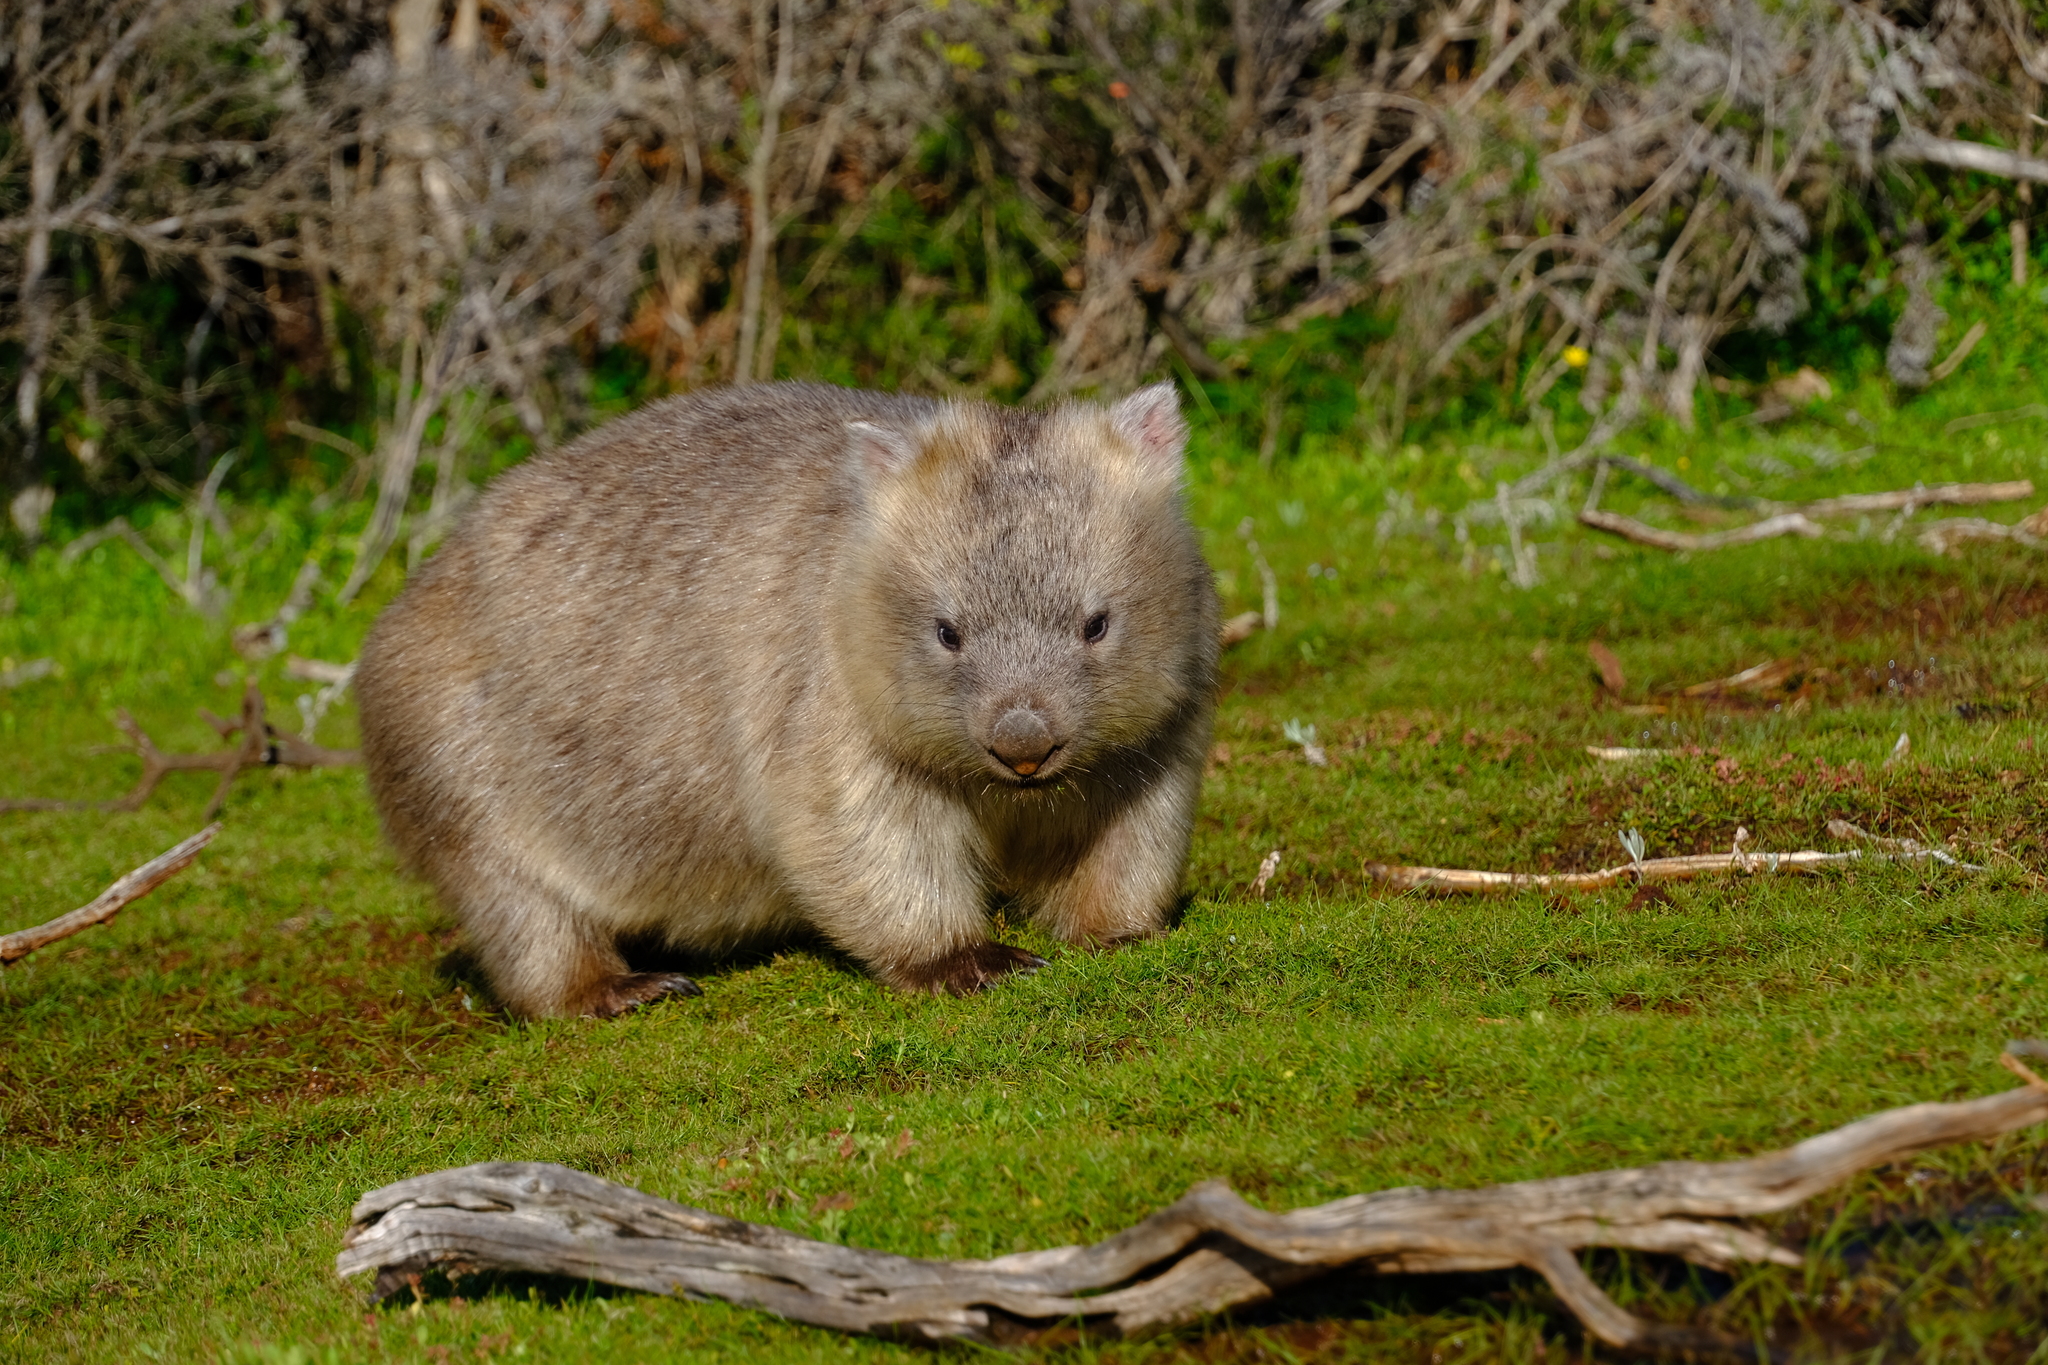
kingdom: Animalia
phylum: Chordata
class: Mammalia
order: Diprotodontia
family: Vombatidae
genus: Vombatus
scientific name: Vombatus ursinus
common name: Common wombat
